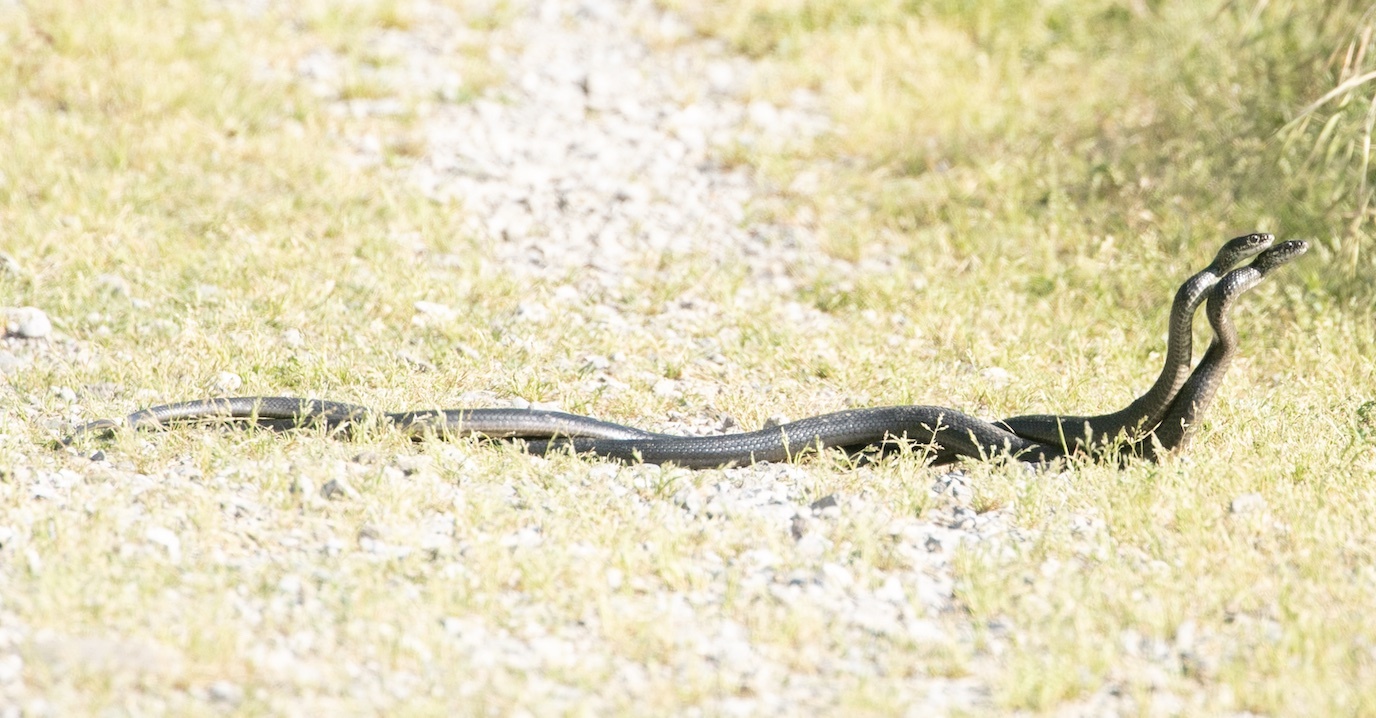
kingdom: Animalia
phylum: Chordata
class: Squamata
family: Colubridae
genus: Hierophis
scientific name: Hierophis viridiflavus
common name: Green whip snake
